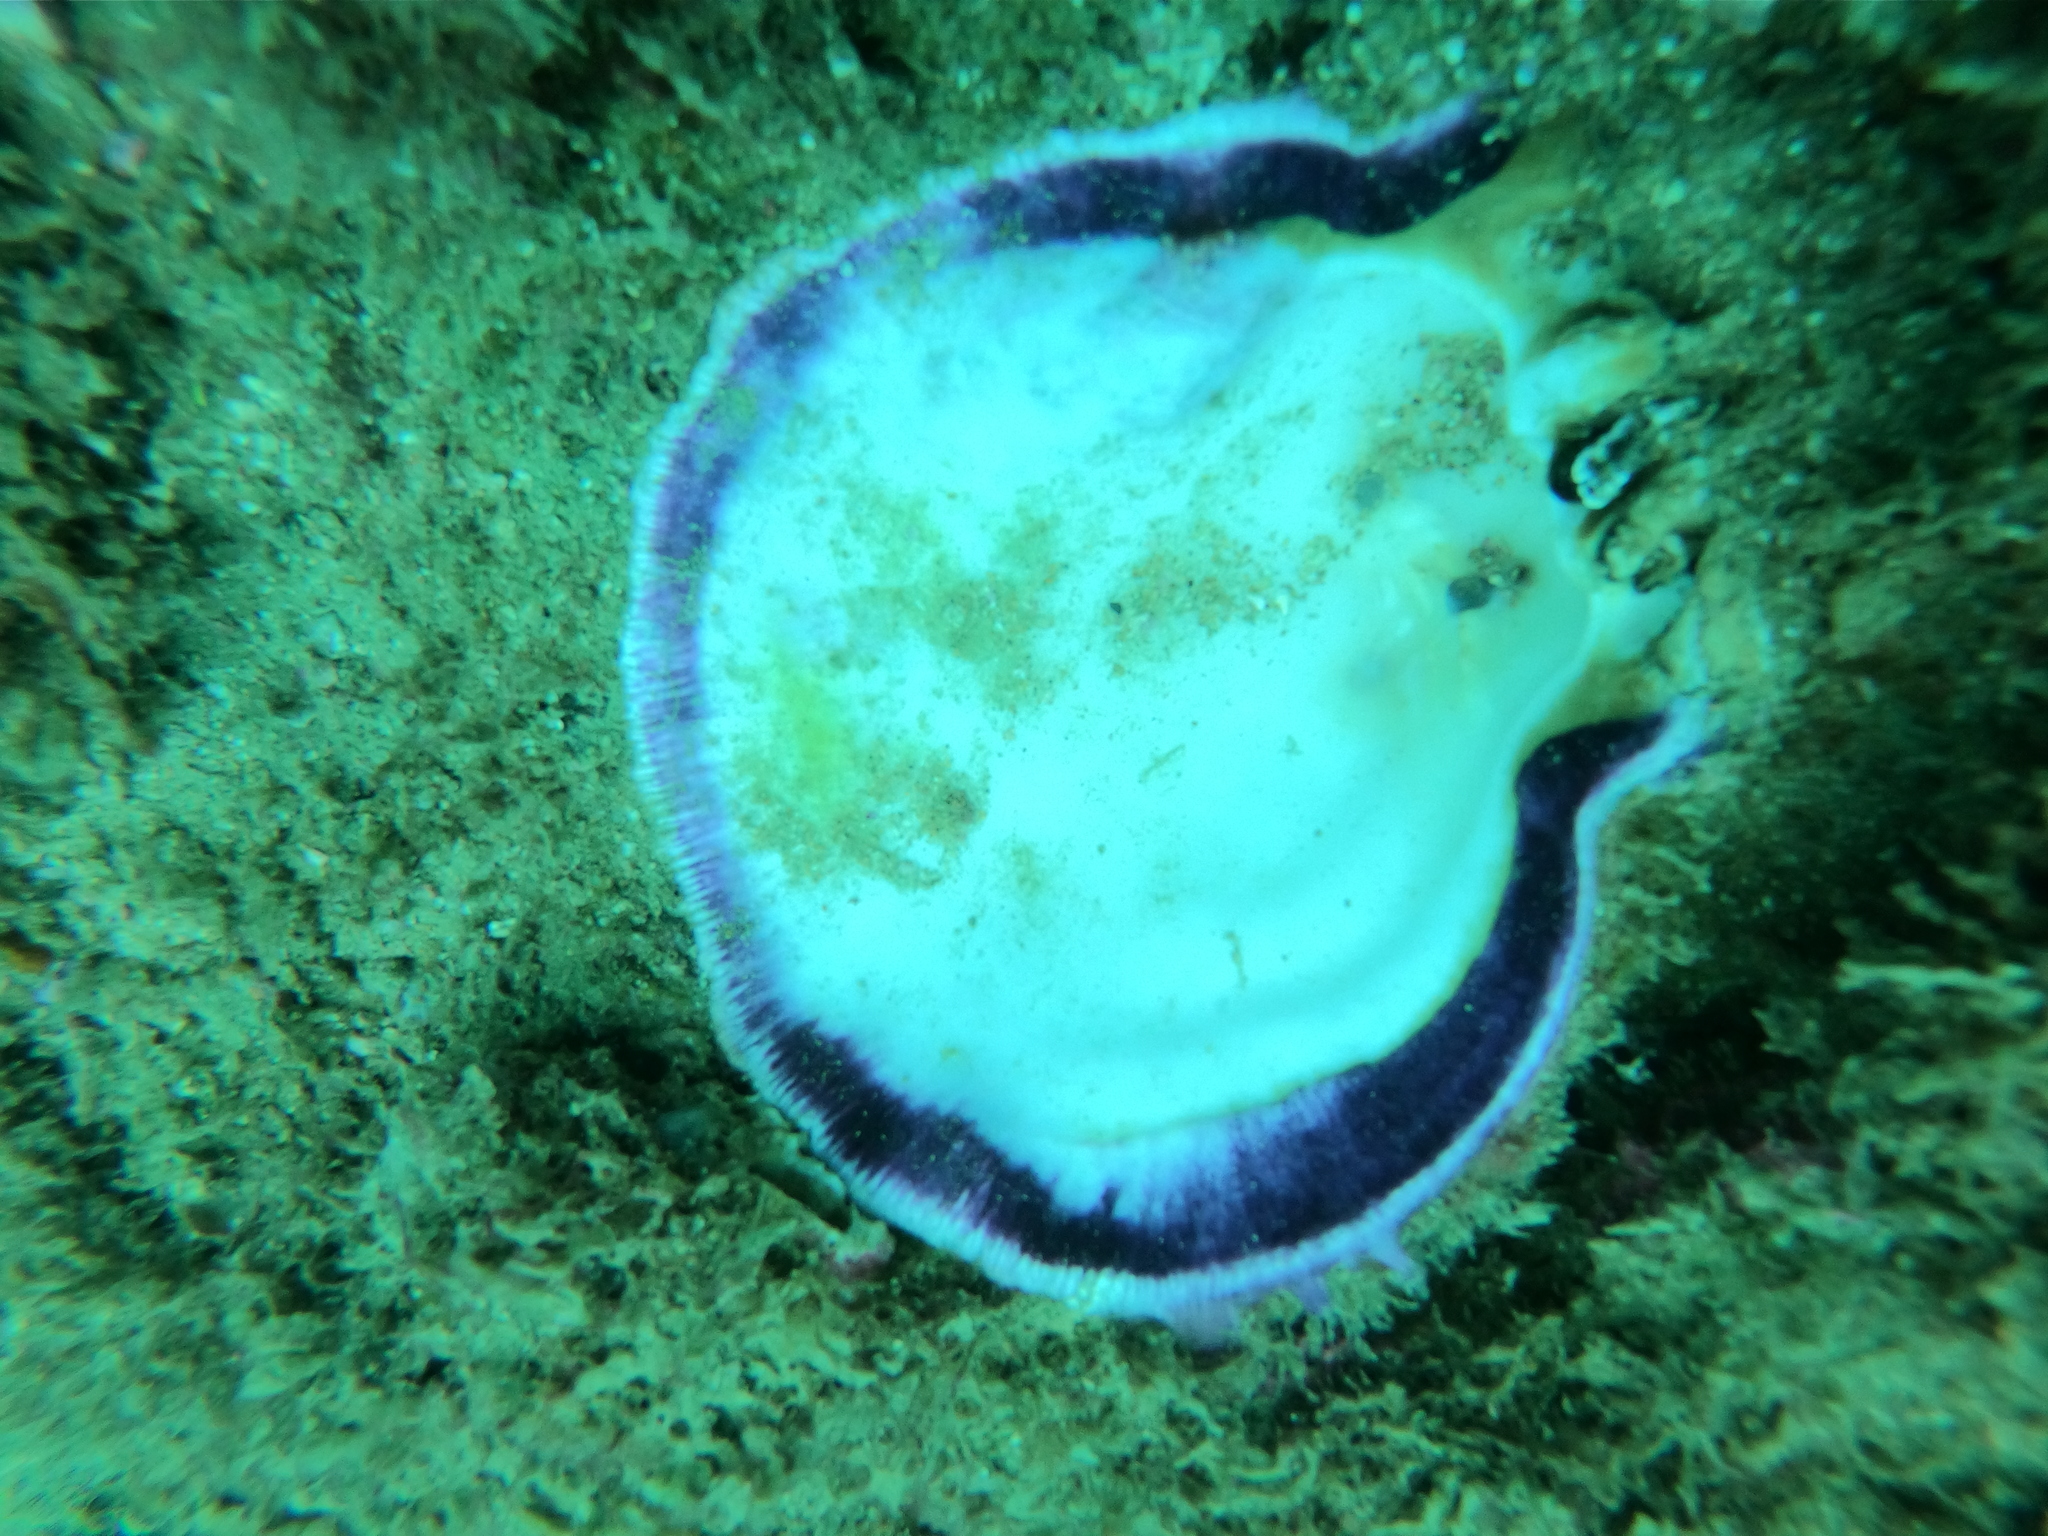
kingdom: Animalia
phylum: Mollusca
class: Bivalvia
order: Pectinida
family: Spondylidae
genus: Spondylus
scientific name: Spondylus limbatus
